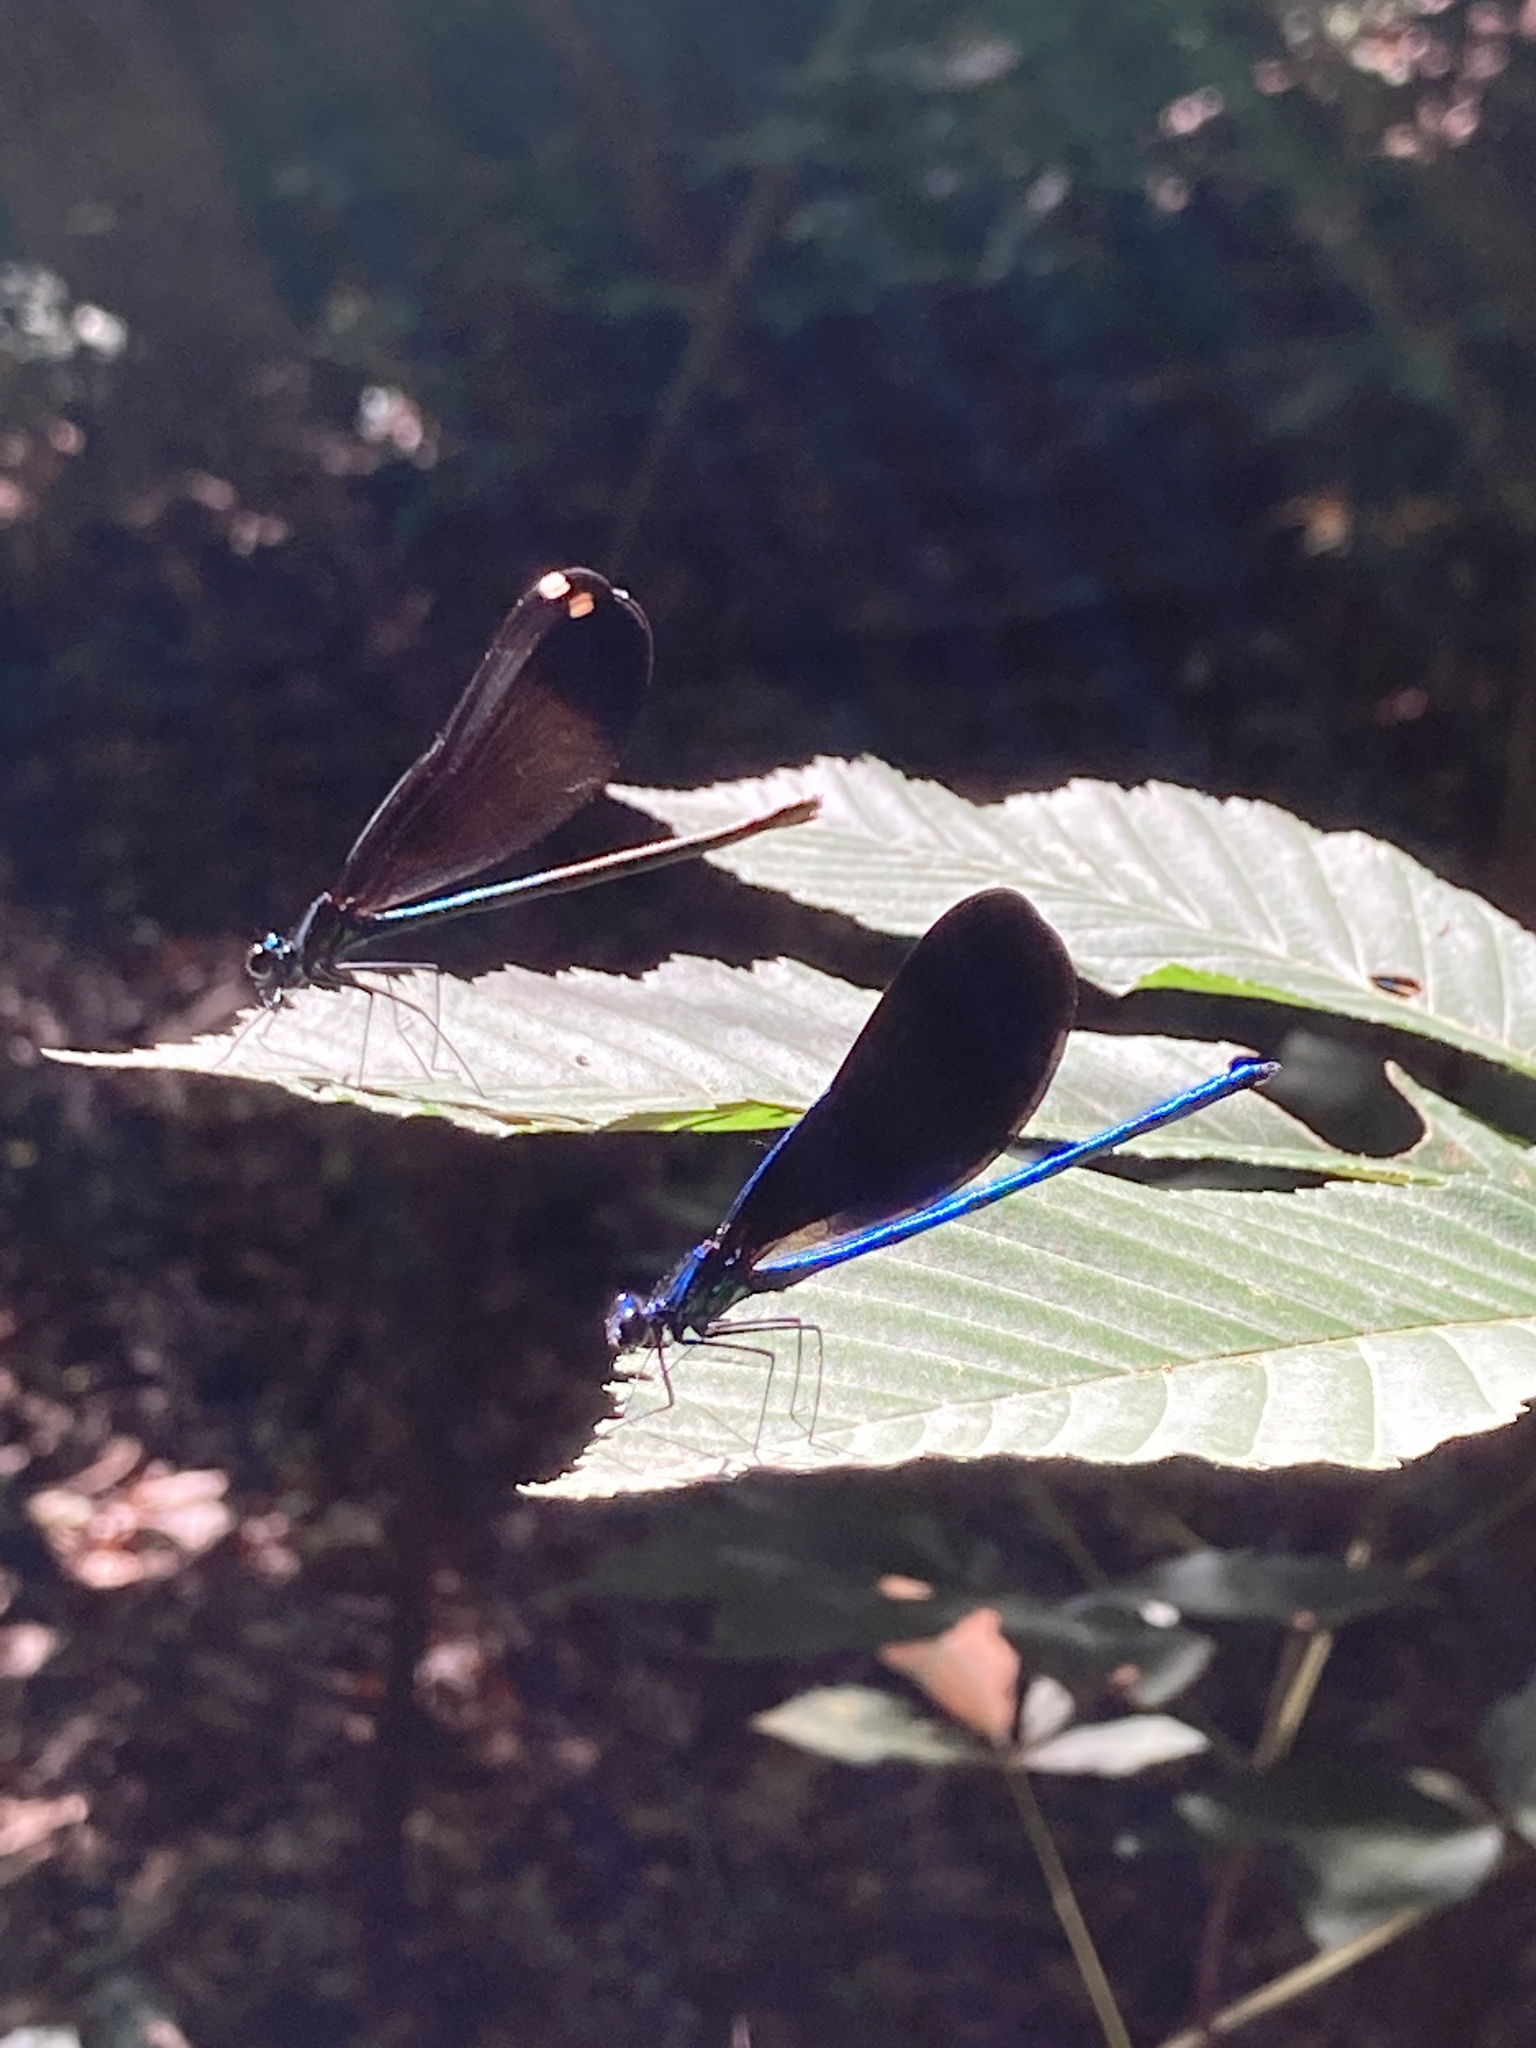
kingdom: Animalia
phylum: Arthropoda
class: Insecta
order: Odonata
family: Calopterygidae
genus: Calopteryx
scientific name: Calopteryx maculata
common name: Ebony jewelwing
